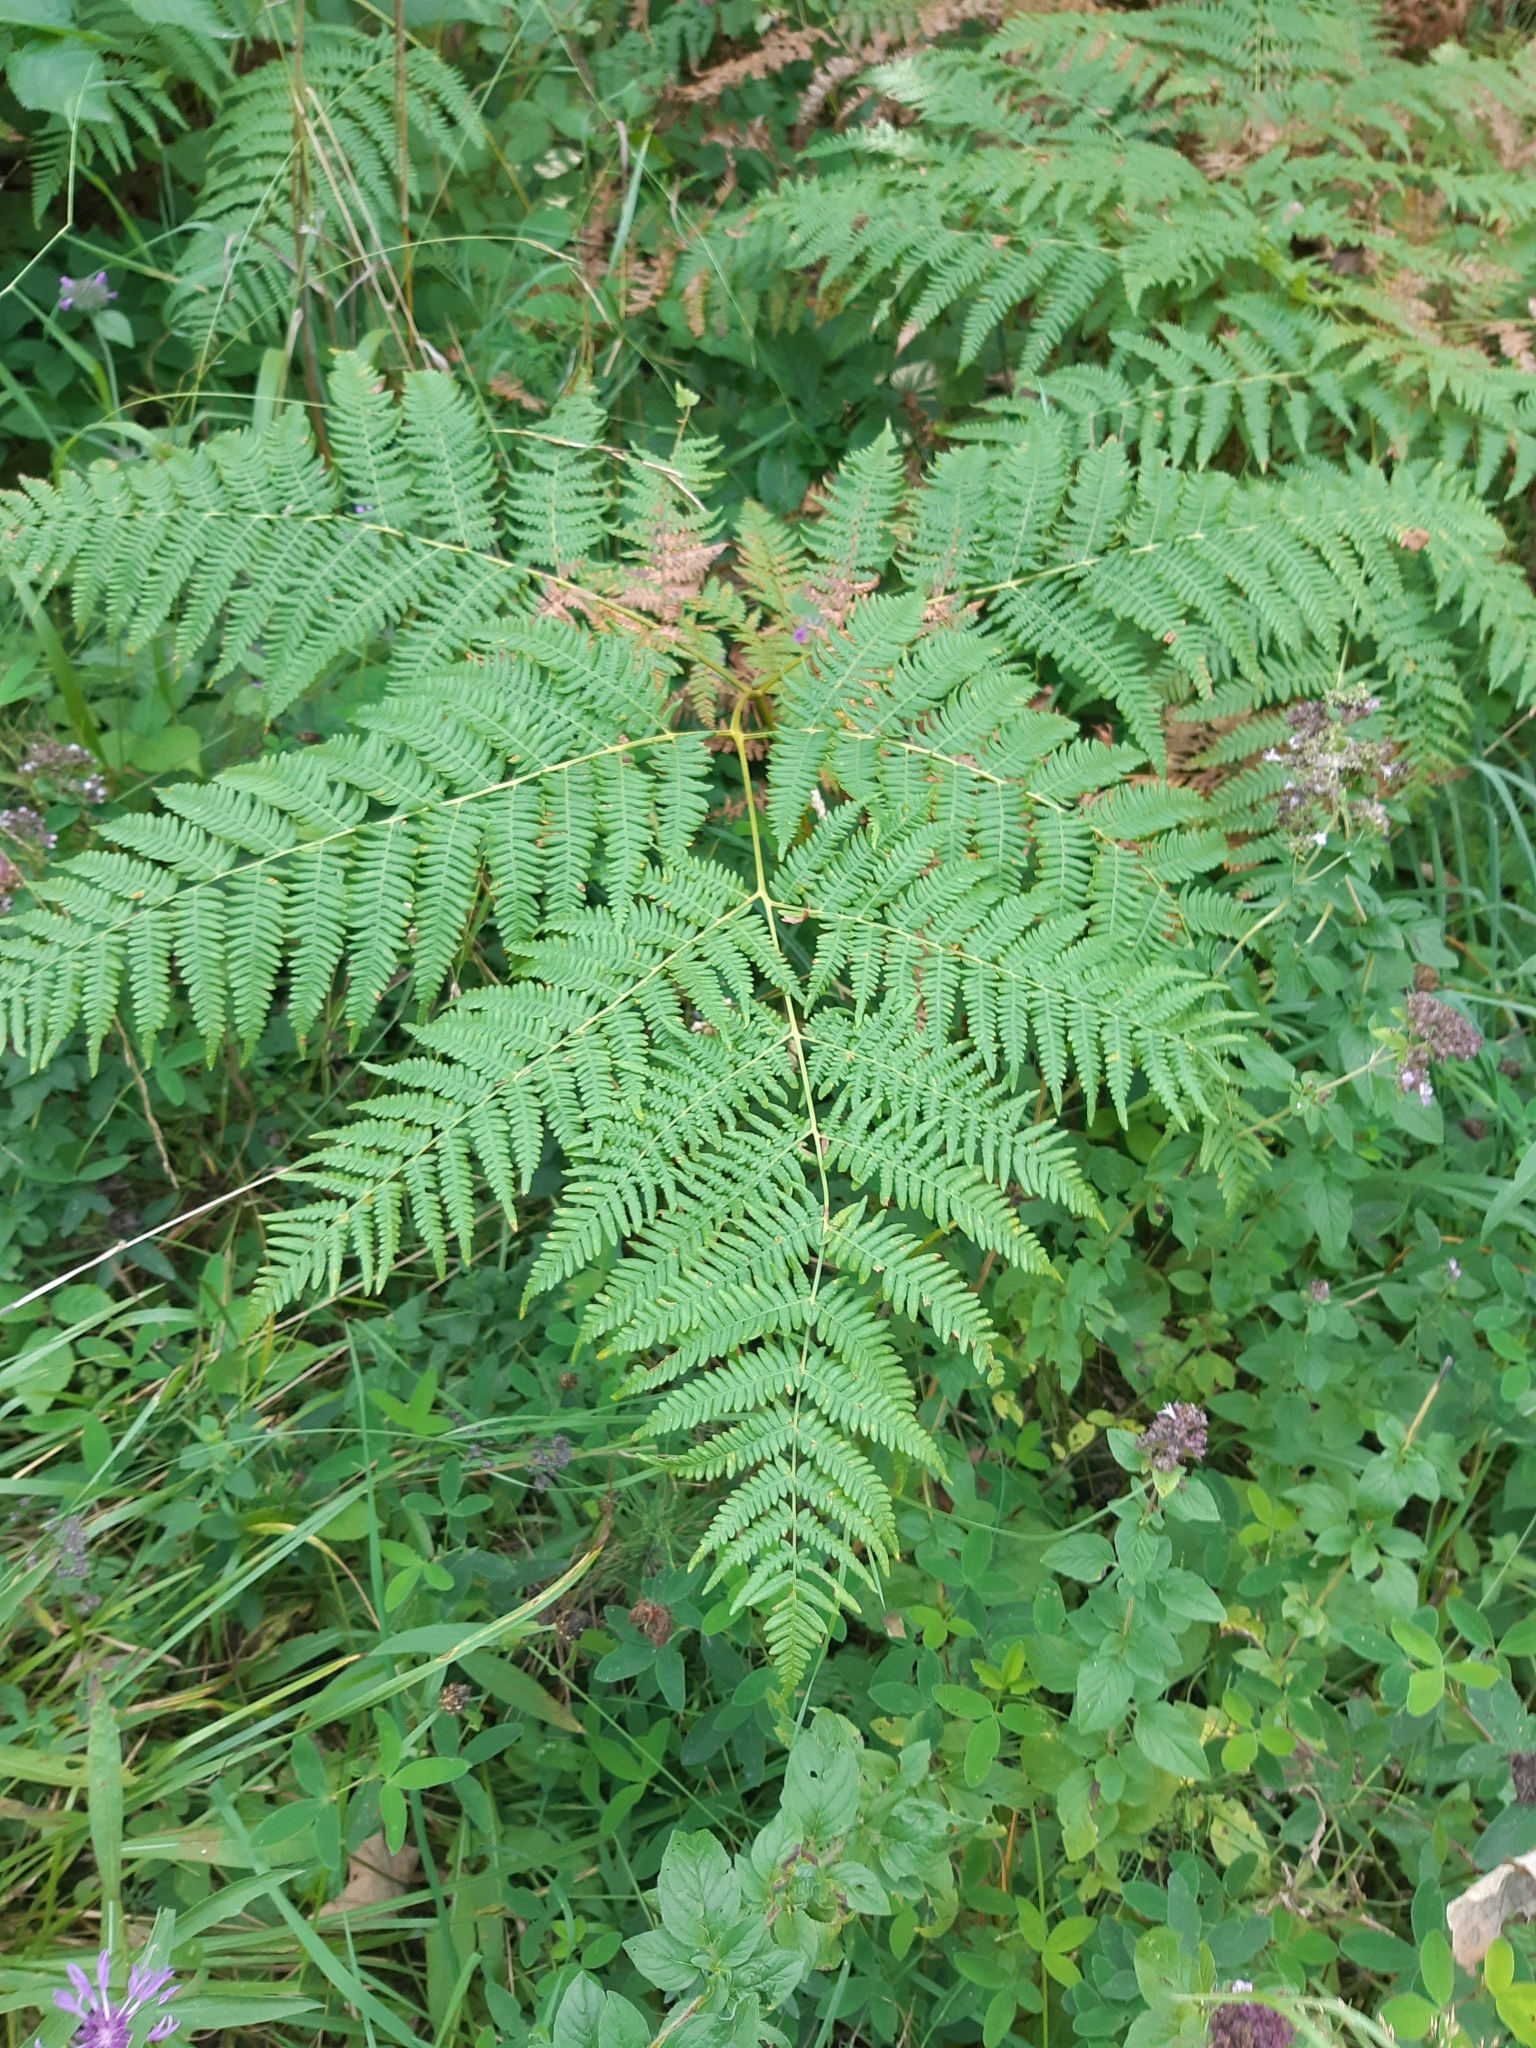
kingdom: Plantae
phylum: Tracheophyta
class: Polypodiopsida
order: Polypodiales
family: Dennstaedtiaceae
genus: Pteridium
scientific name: Pteridium aquilinum
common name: Bracken
